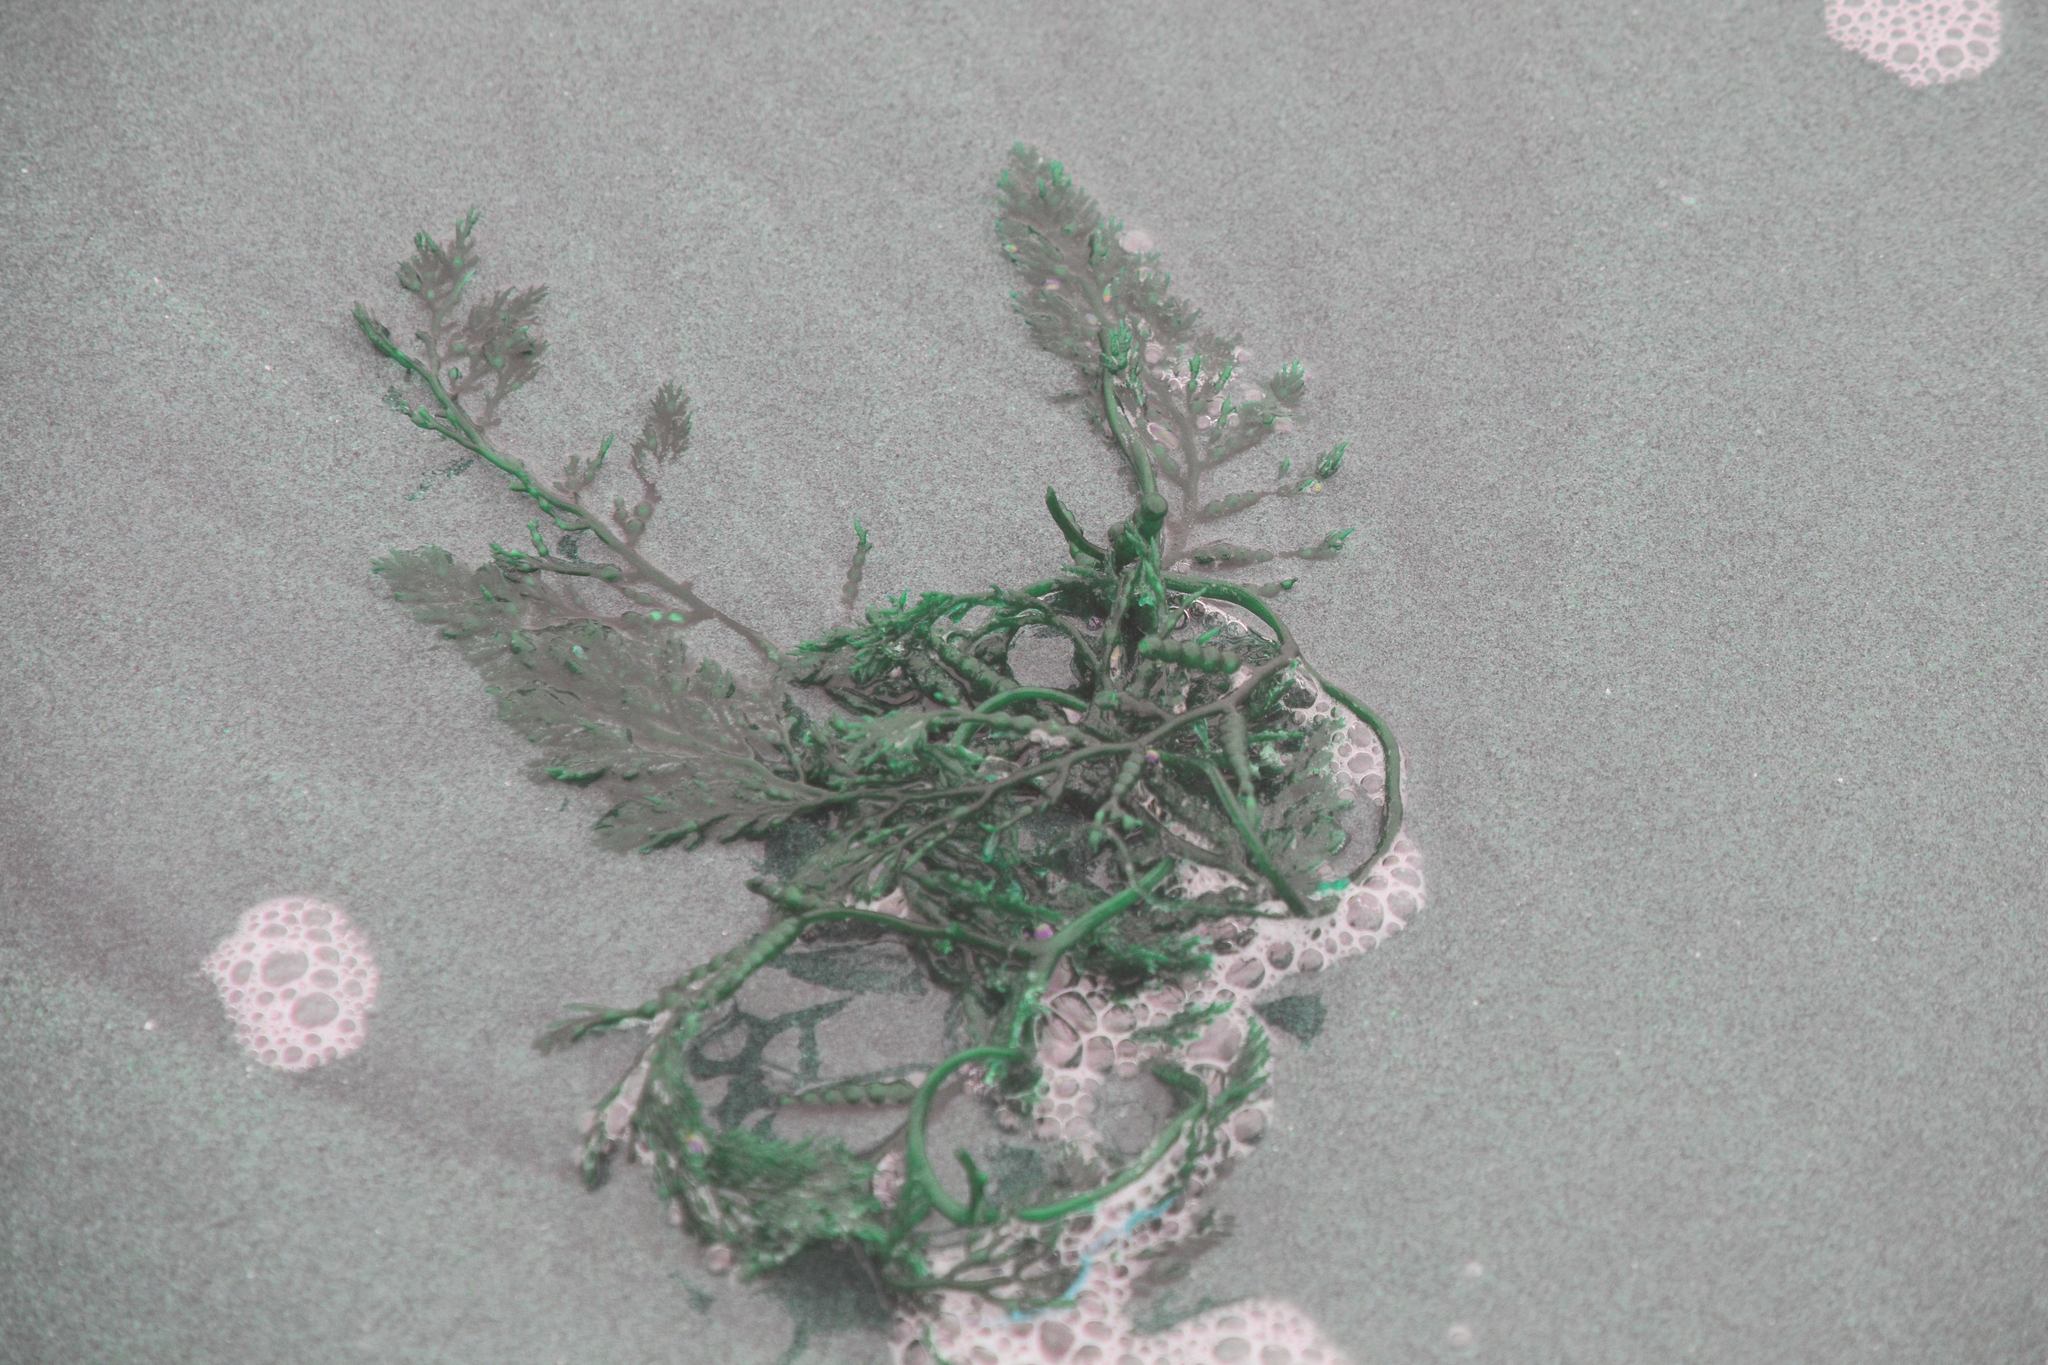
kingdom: Chromista
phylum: Ochrophyta
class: Phaeophyceae
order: Fucales
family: Sargassaceae
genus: Stephanocystis
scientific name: Stephanocystis
